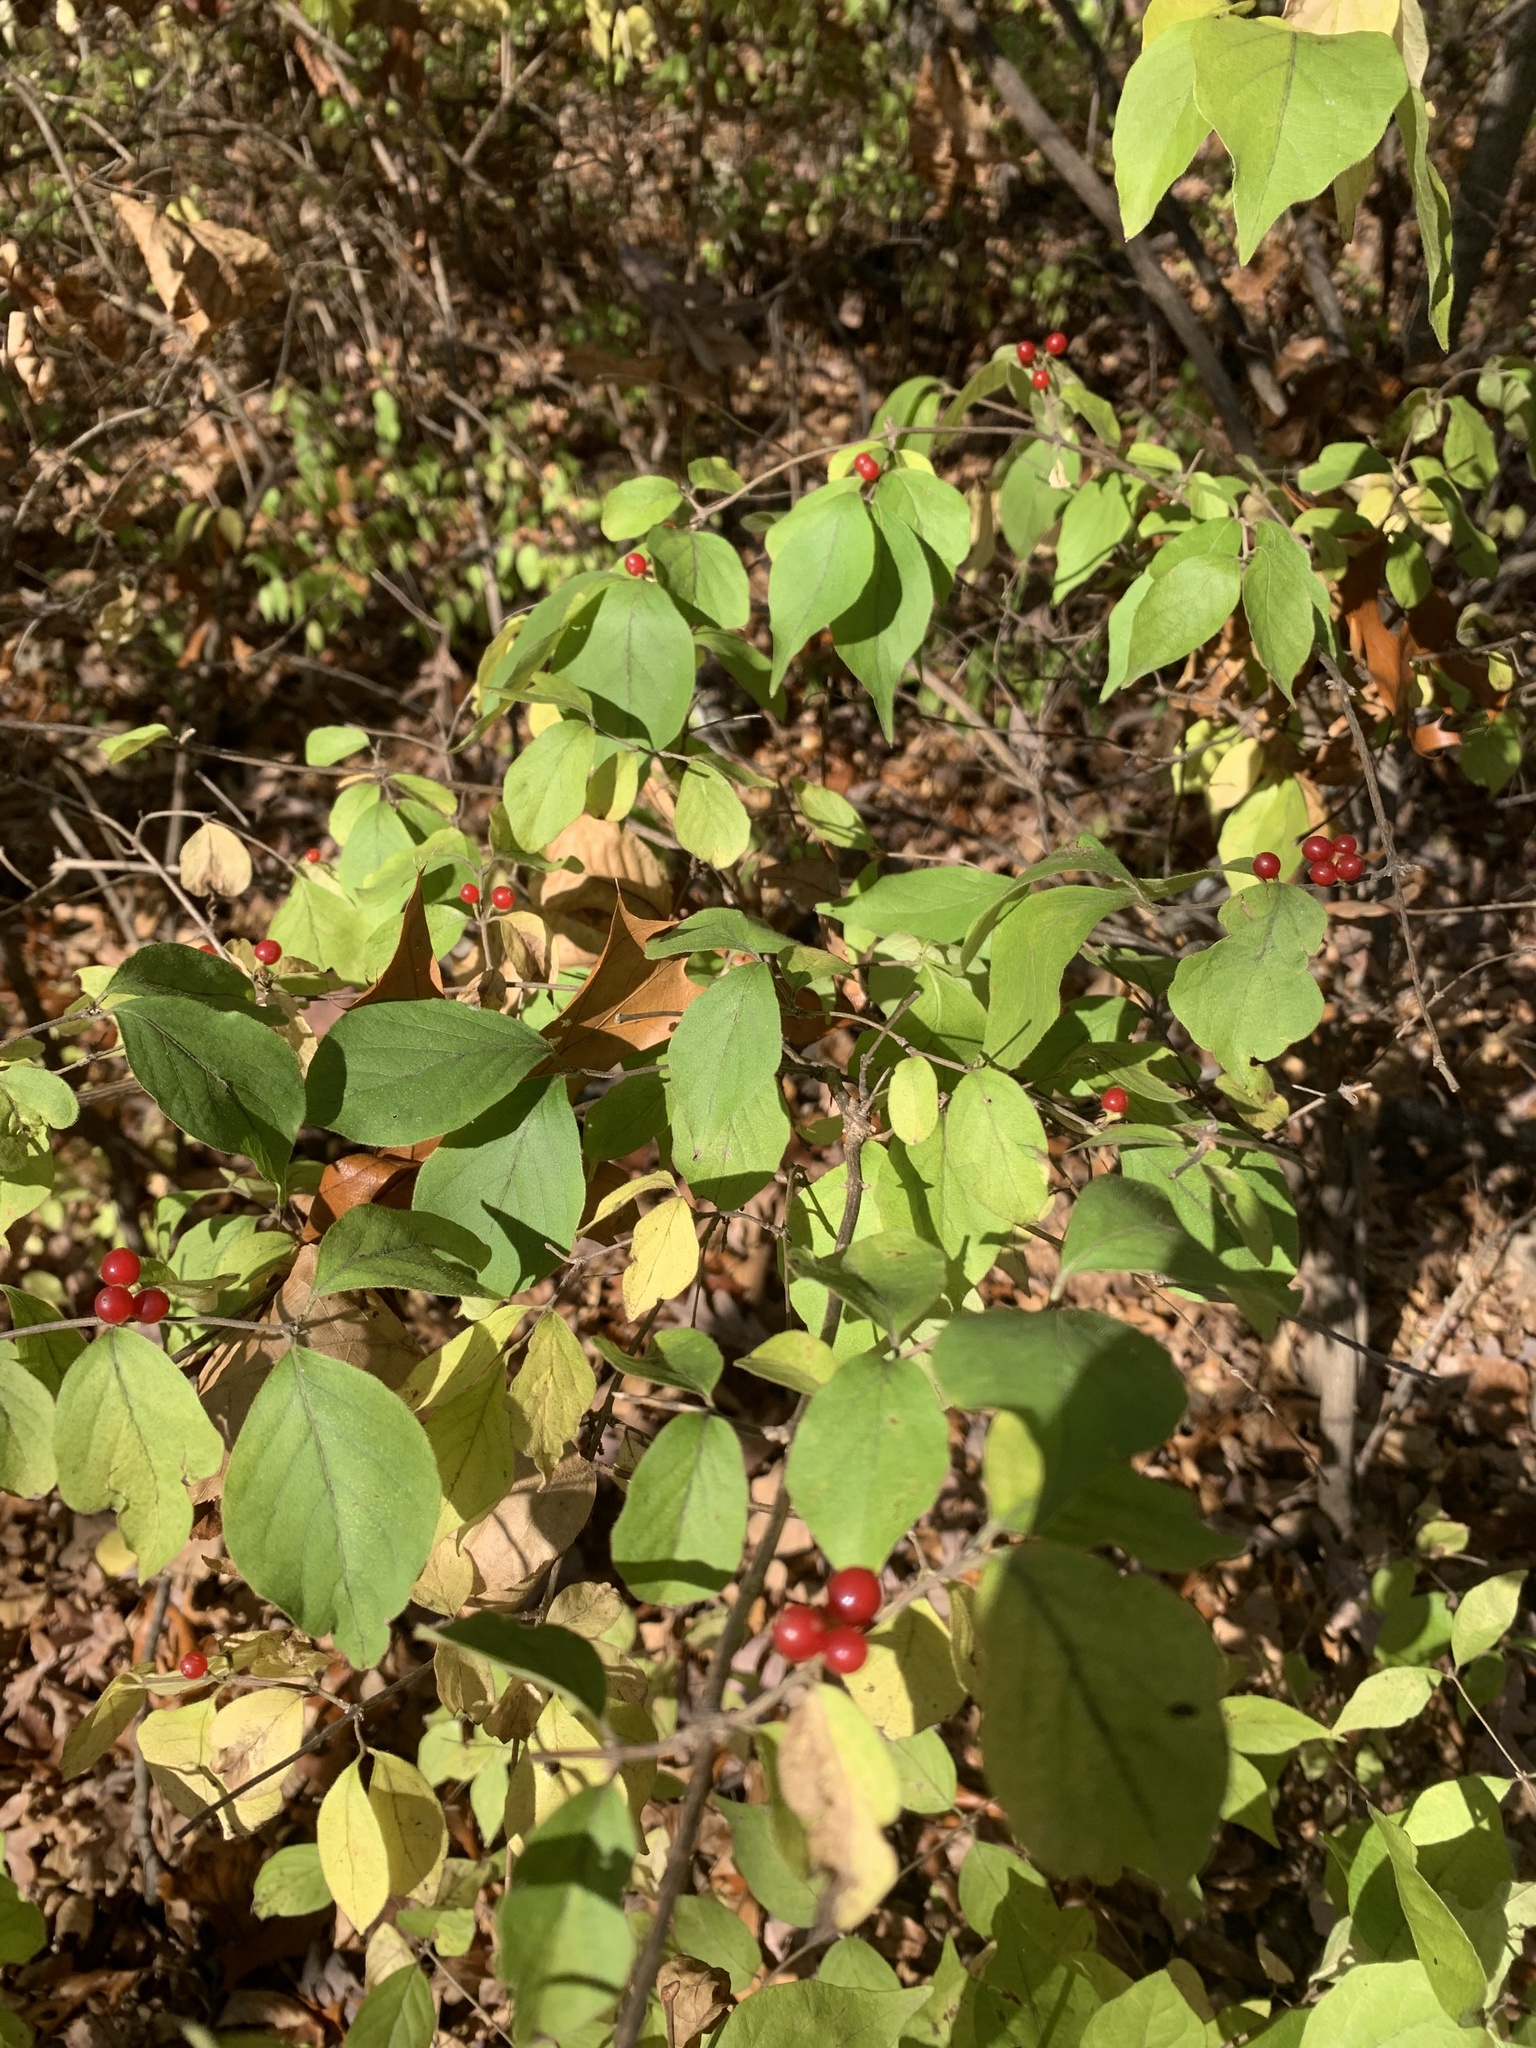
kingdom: Plantae
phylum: Tracheophyta
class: Magnoliopsida
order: Dipsacales
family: Caprifoliaceae
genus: Lonicera
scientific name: Lonicera maackii
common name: Amur honeysuckle
